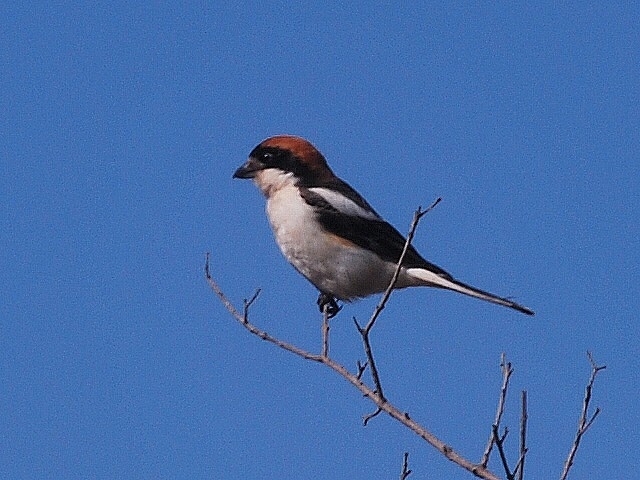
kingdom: Animalia
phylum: Chordata
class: Aves
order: Passeriformes
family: Laniidae
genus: Lanius
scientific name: Lanius senator
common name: Woodchat shrike
